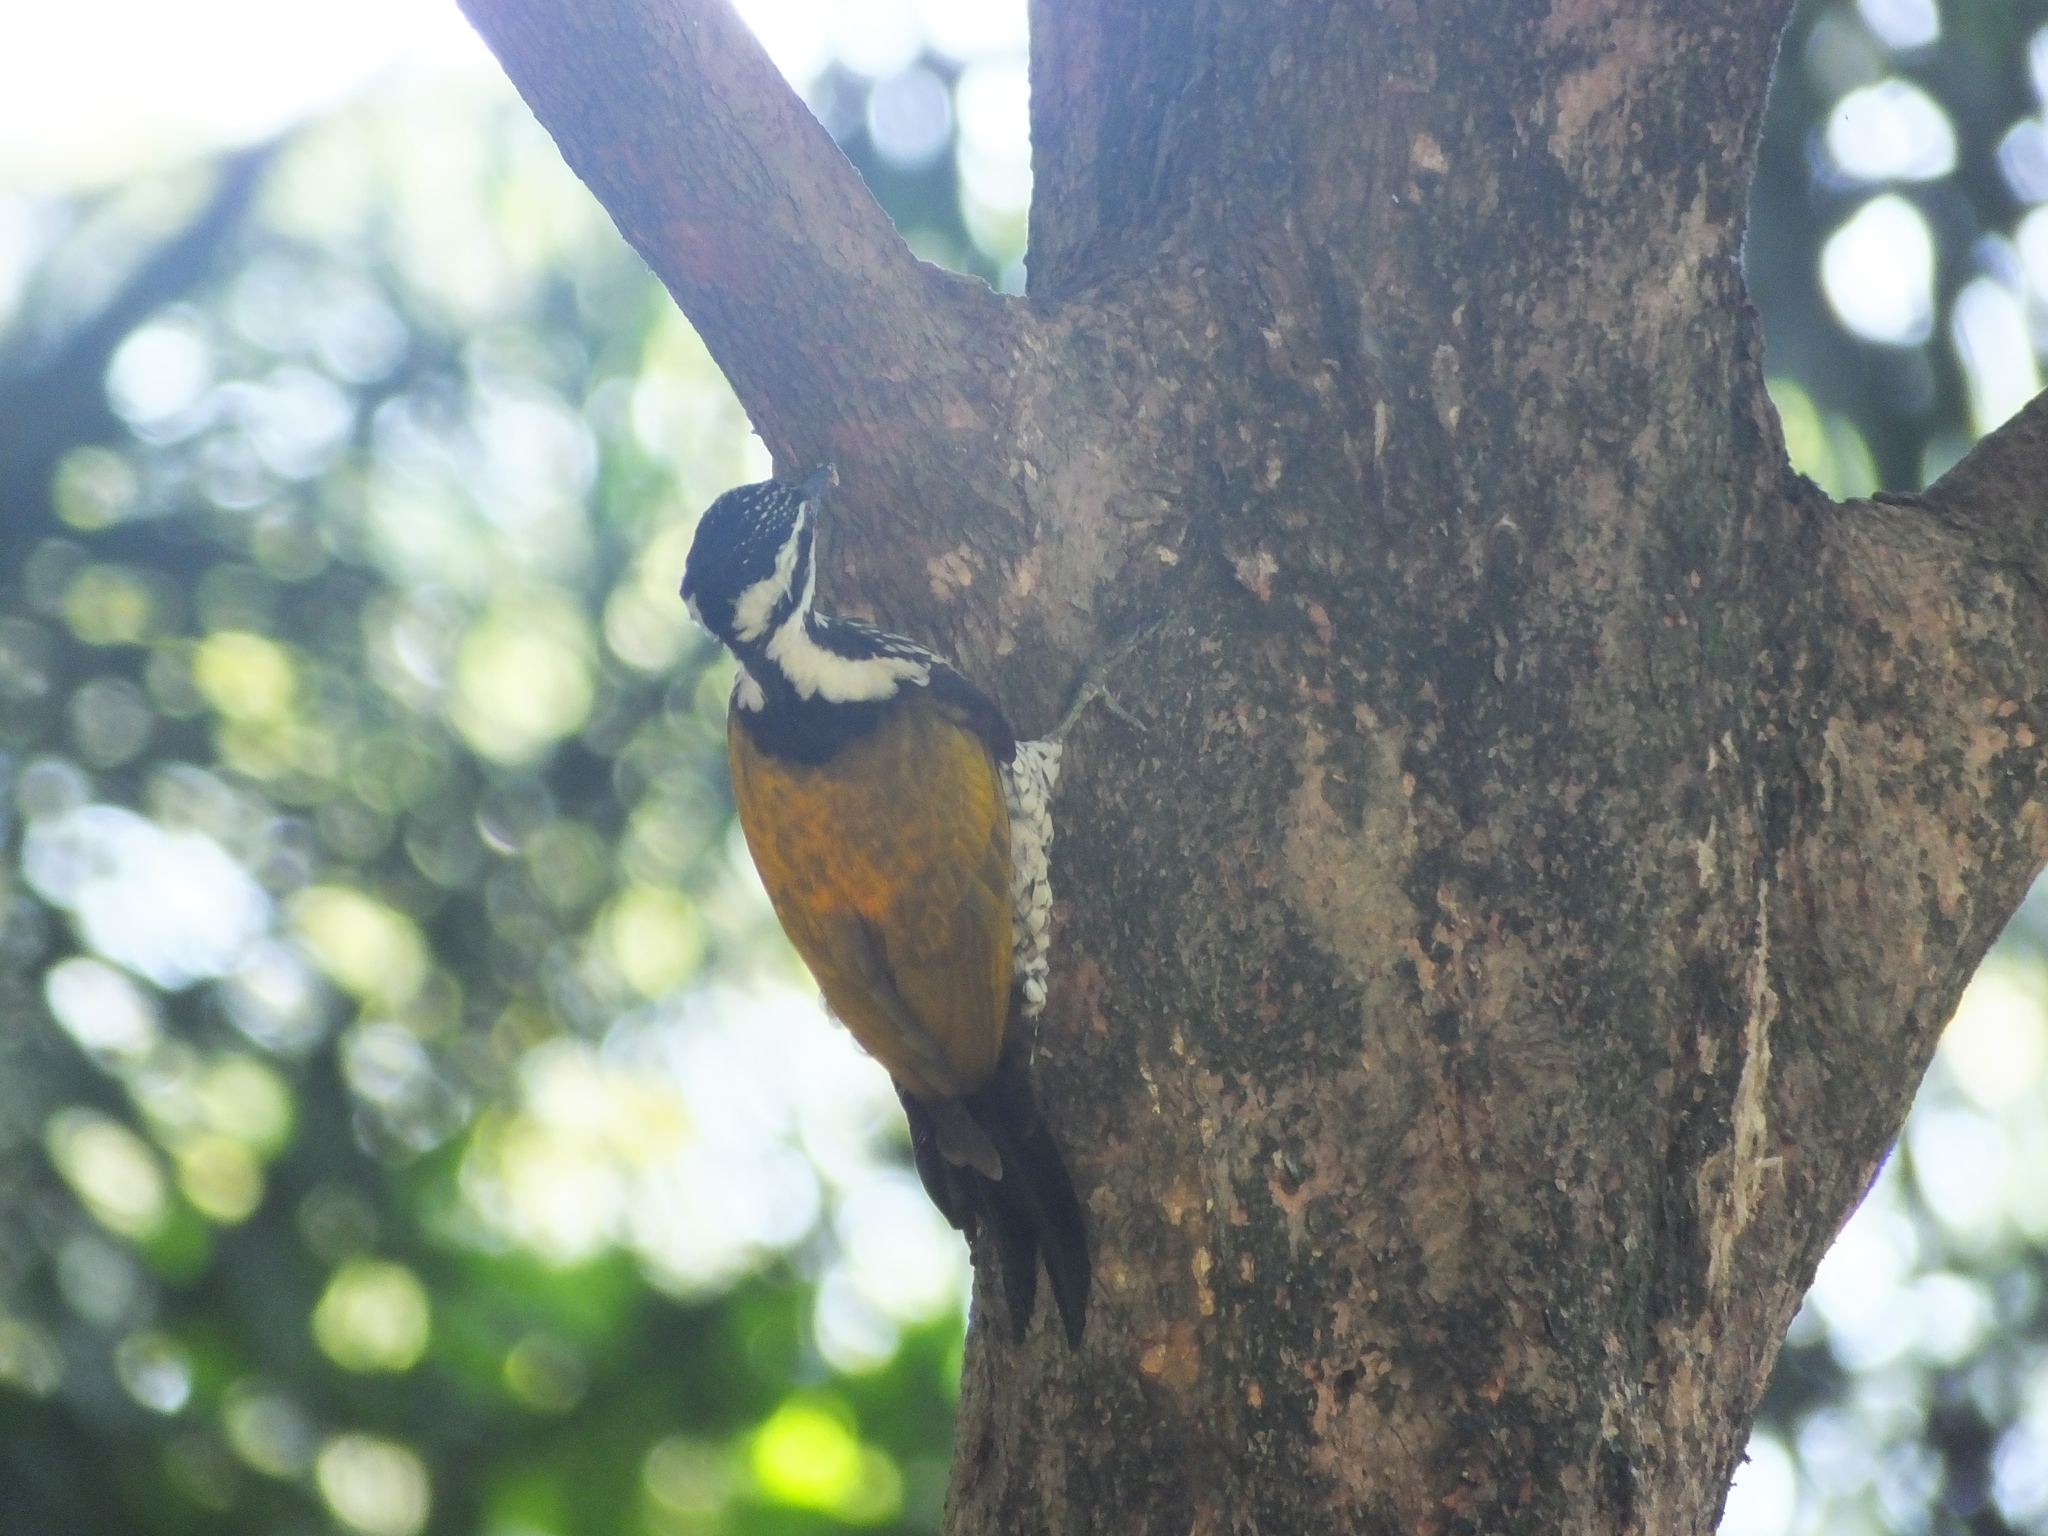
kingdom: Animalia
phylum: Chordata
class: Aves
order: Piciformes
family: Picidae
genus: Dinopium
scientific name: Dinopium javanense
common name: Common flameback
